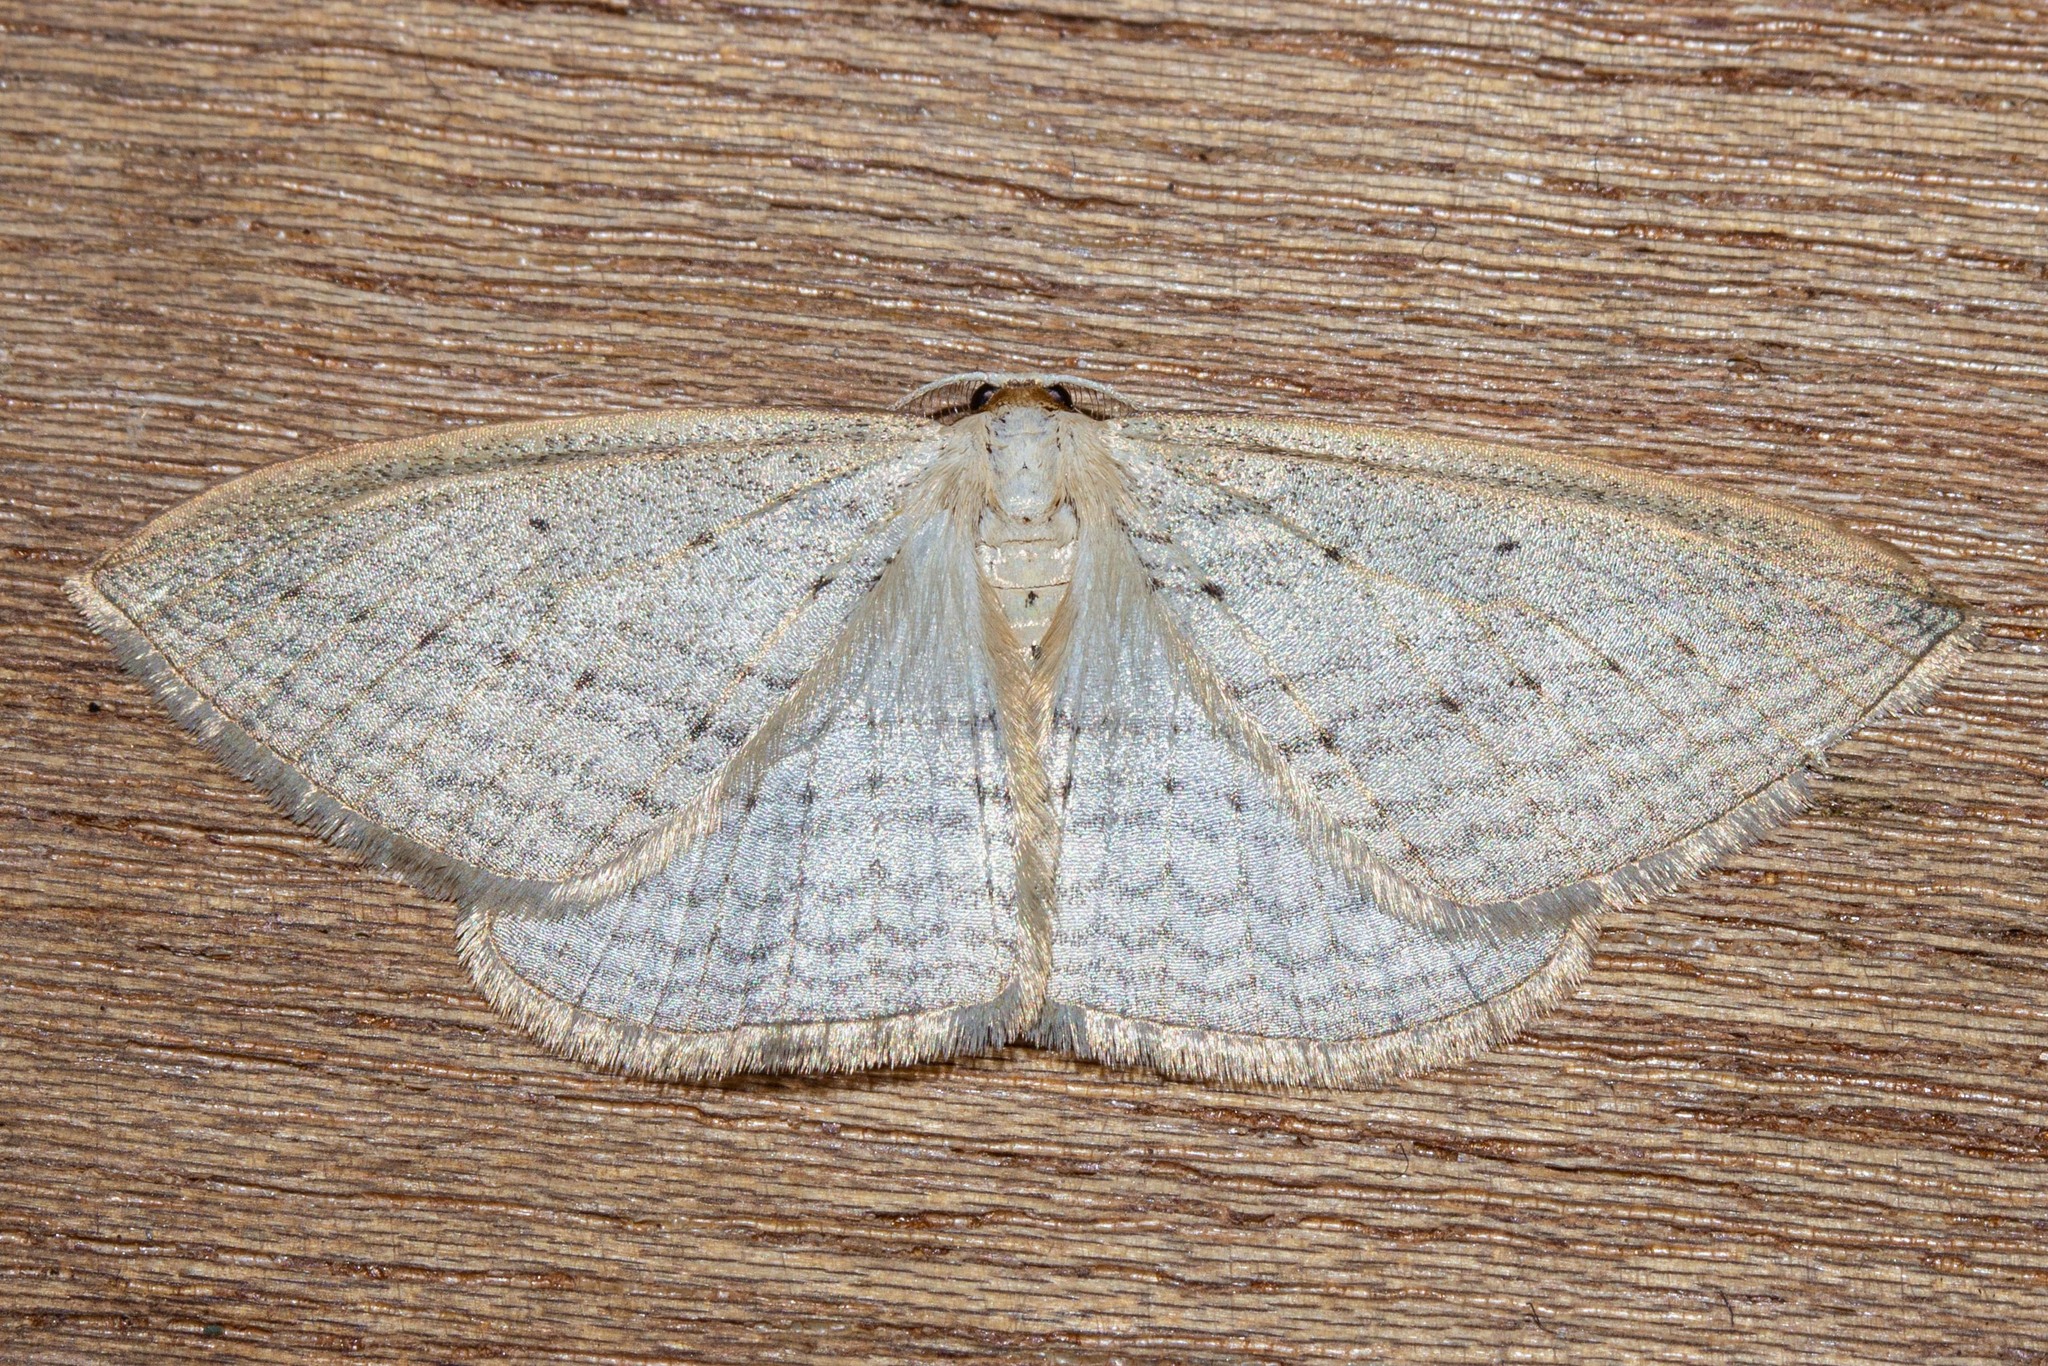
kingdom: Animalia
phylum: Arthropoda
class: Insecta
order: Lepidoptera
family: Geometridae
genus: Orthoclydon
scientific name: Orthoclydon praefectata
